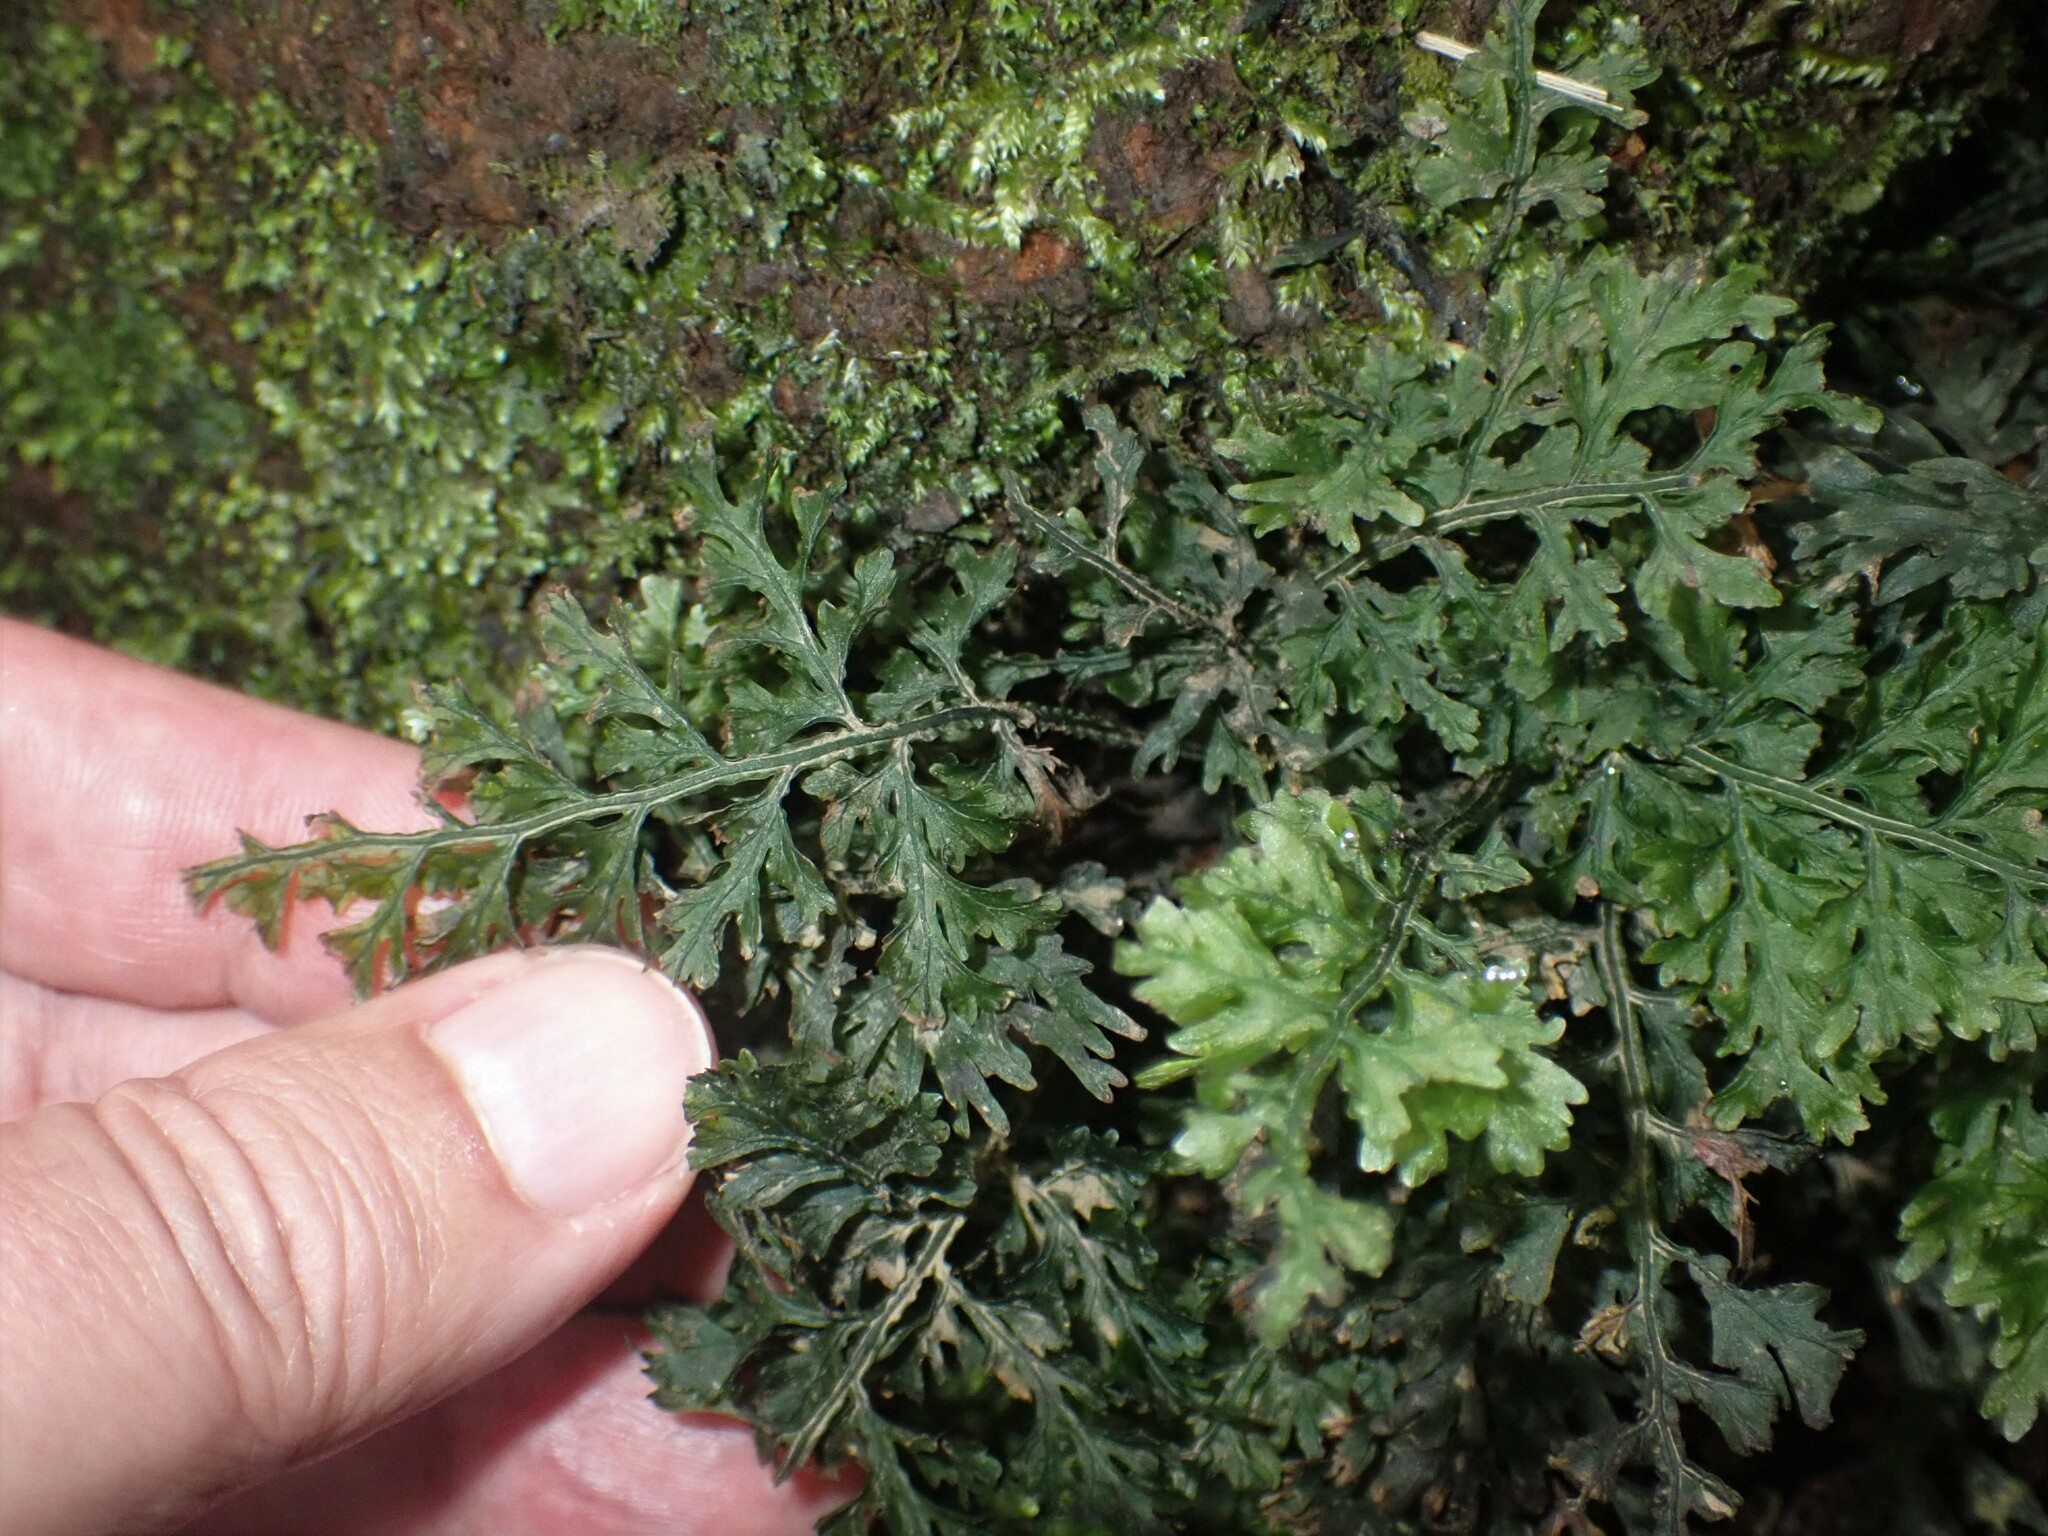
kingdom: Plantae
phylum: Tracheophyta
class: Polypodiopsida
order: Hymenophyllales
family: Hymenophyllaceae
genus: Vandenboschia
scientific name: Vandenboschia speciosa
